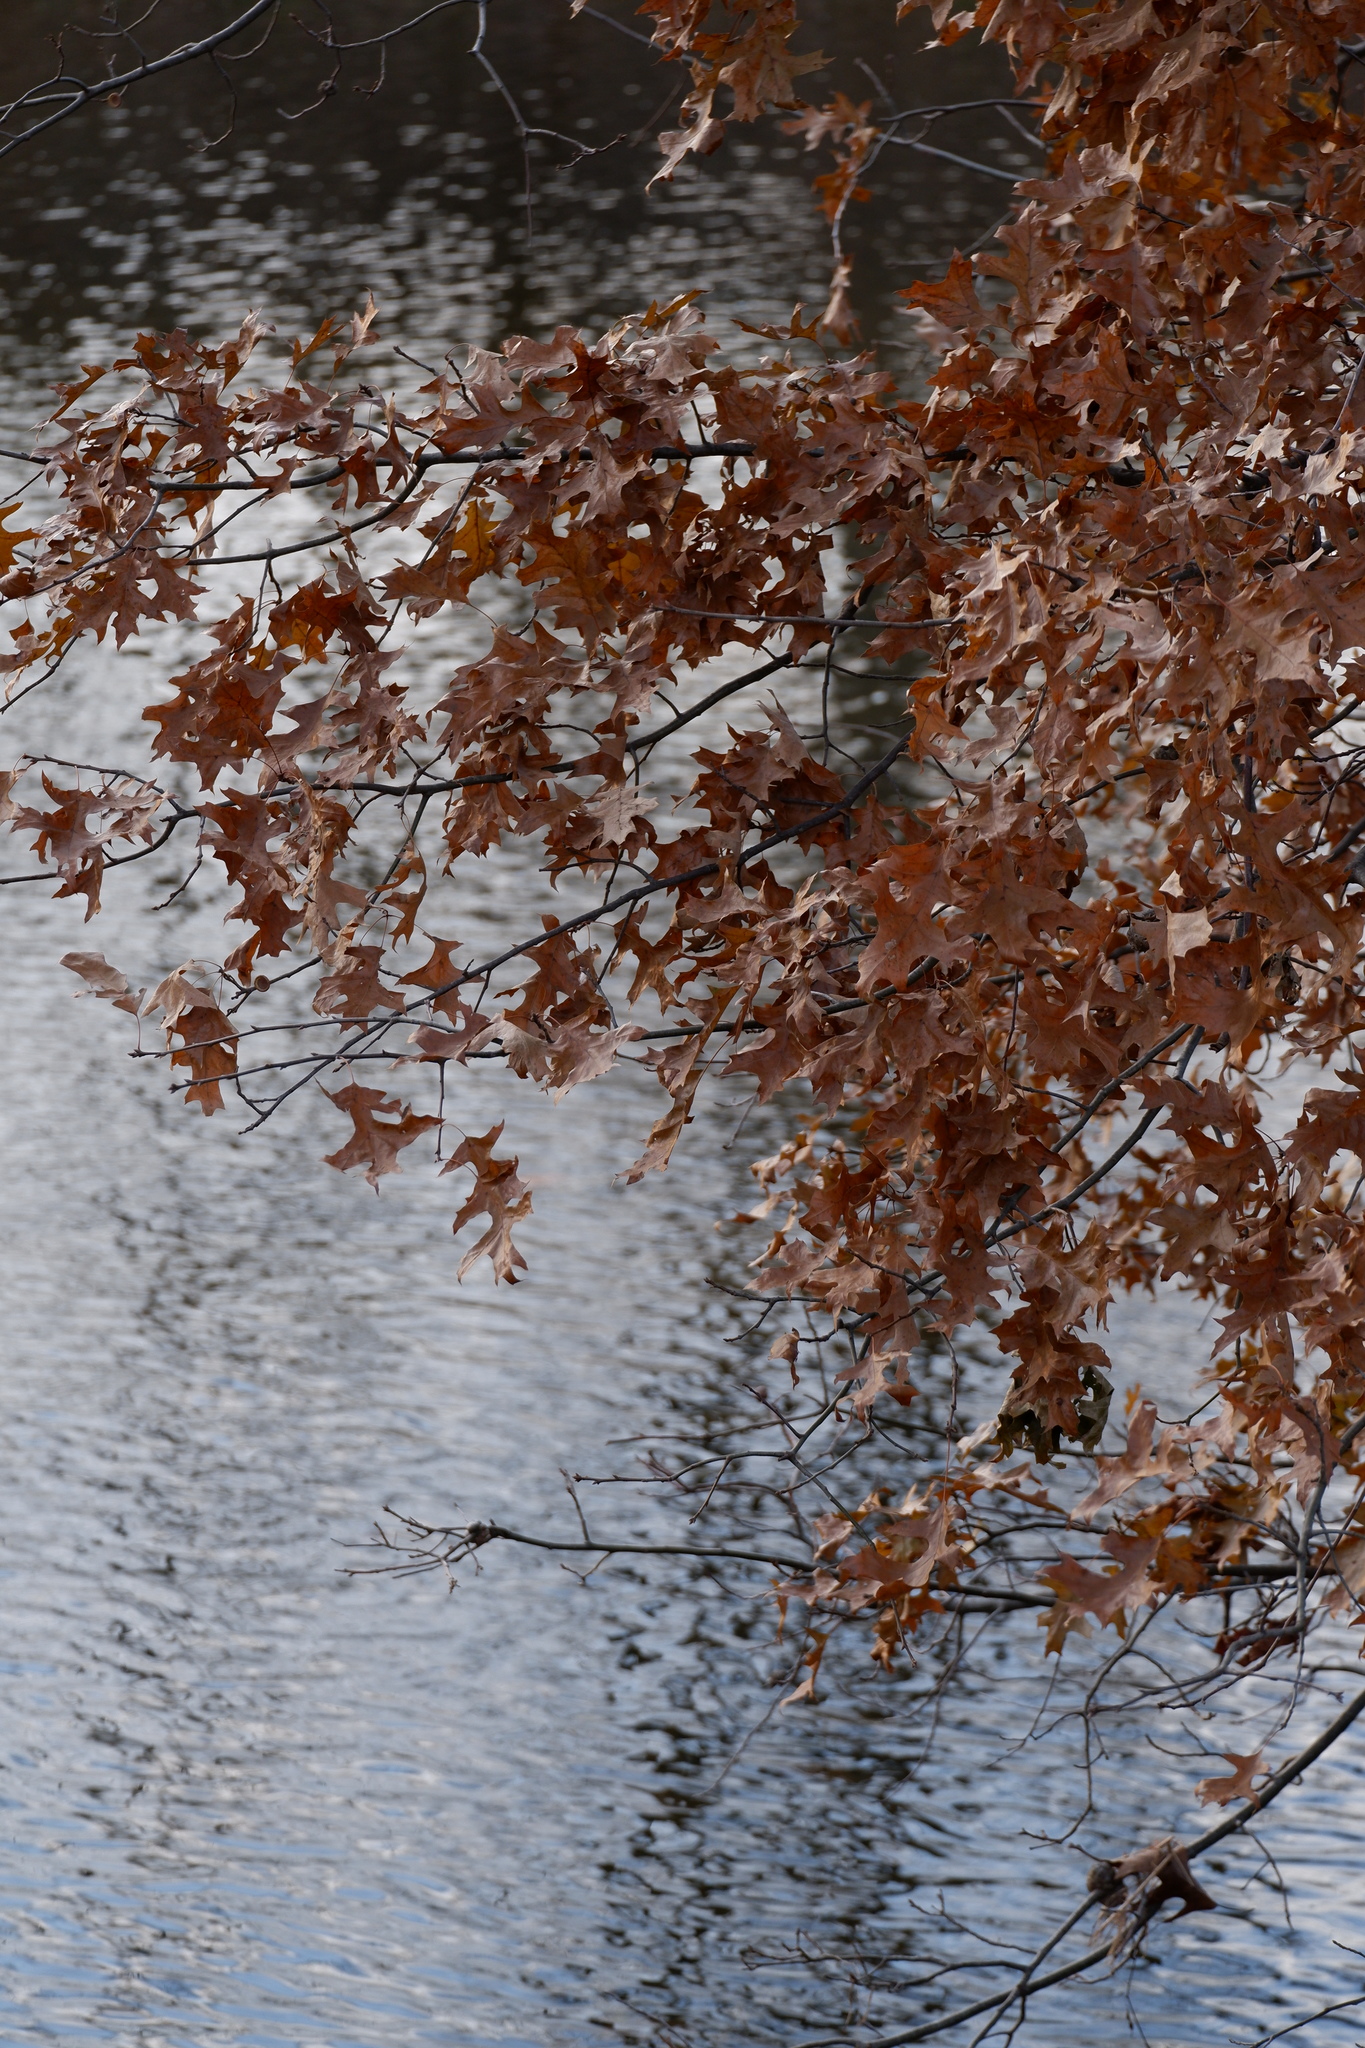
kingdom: Plantae
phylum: Tracheophyta
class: Magnoliopsida
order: Fagales
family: Fagaceae
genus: Quercus
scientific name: Quercus palustris
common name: Pin oak
